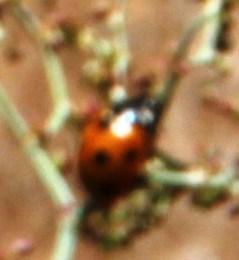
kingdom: Animalia
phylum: Arthropoda
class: Insecta
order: Coleoptera
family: Coccinellidae
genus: Coccinella
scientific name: Coccinella septempunctata
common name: Sevenspotted lady beetle
